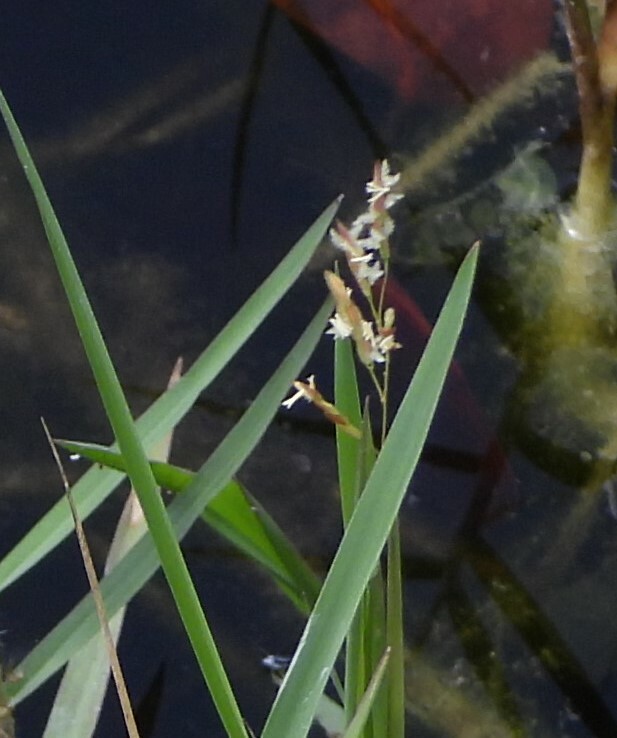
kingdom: Plantae
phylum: Tracheophyta
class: Liliopsida
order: Poales
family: Poaceae
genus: Leersia
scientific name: Leersia hexandra
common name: Southern cut grass
